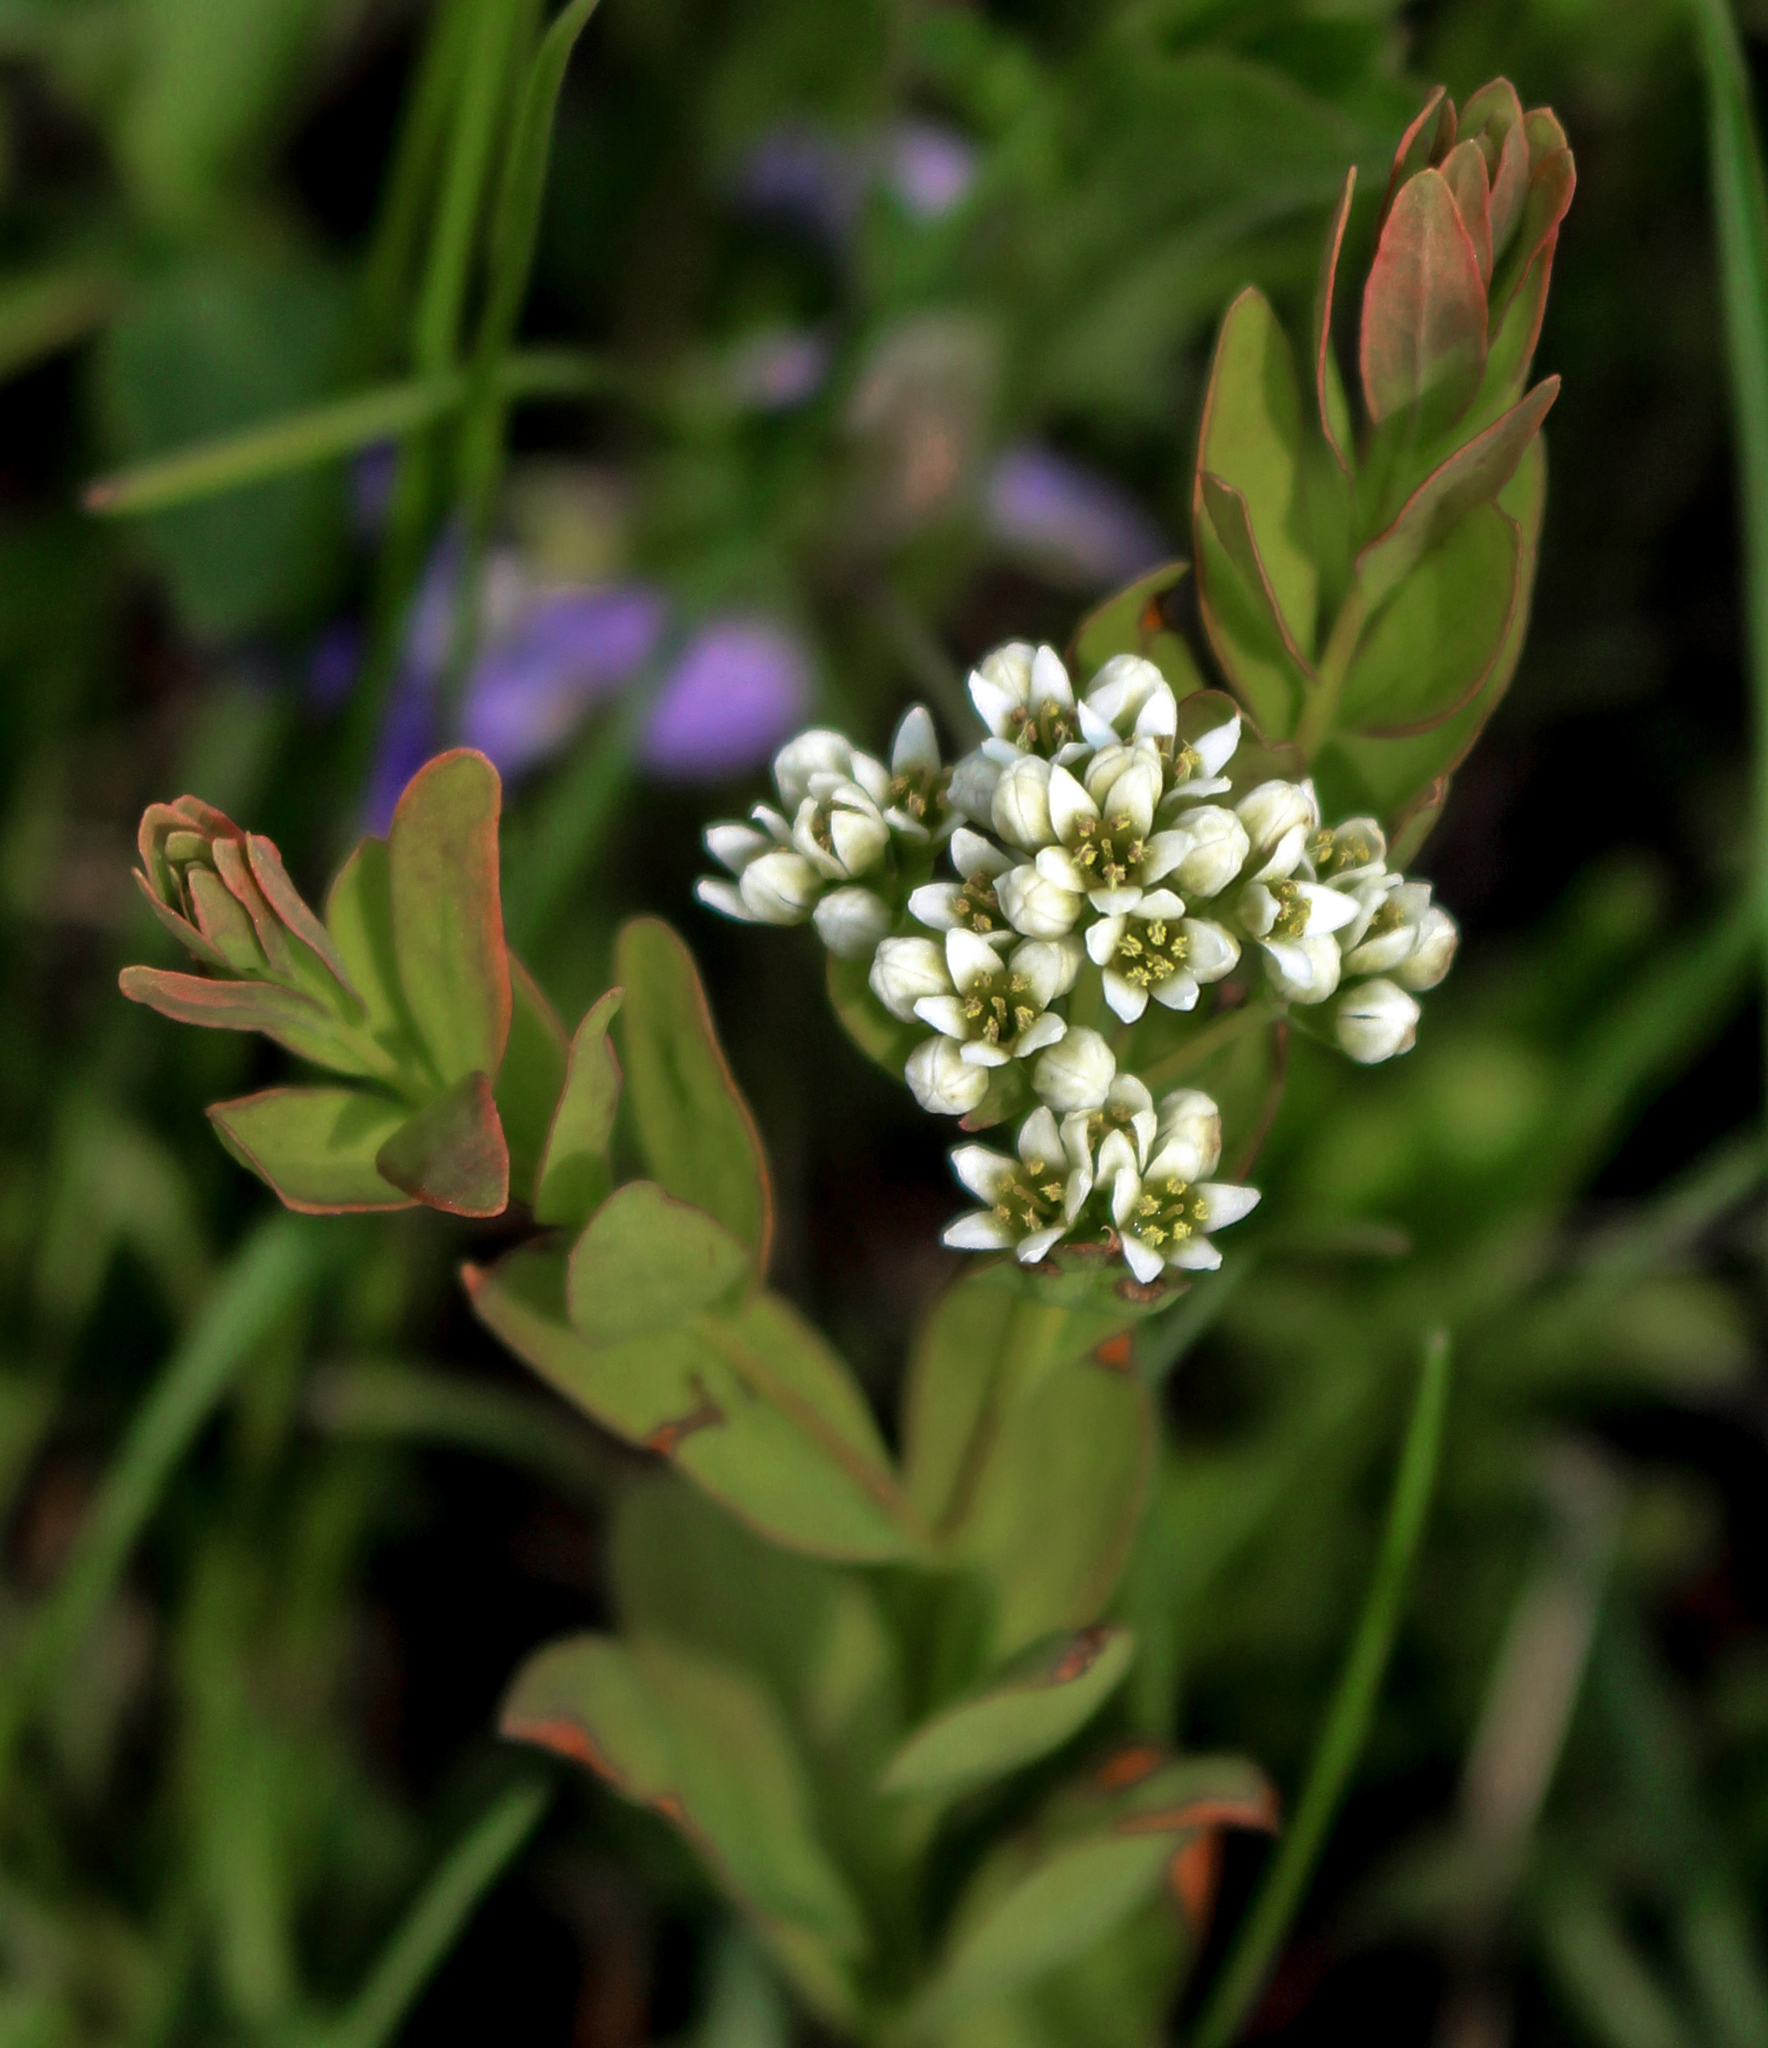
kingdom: Plantae
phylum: Tracheophyta
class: Magnoliopsida
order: Santalales
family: Comandraceae
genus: Comandra
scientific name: Comandra umbellata
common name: Bastard toadflax
